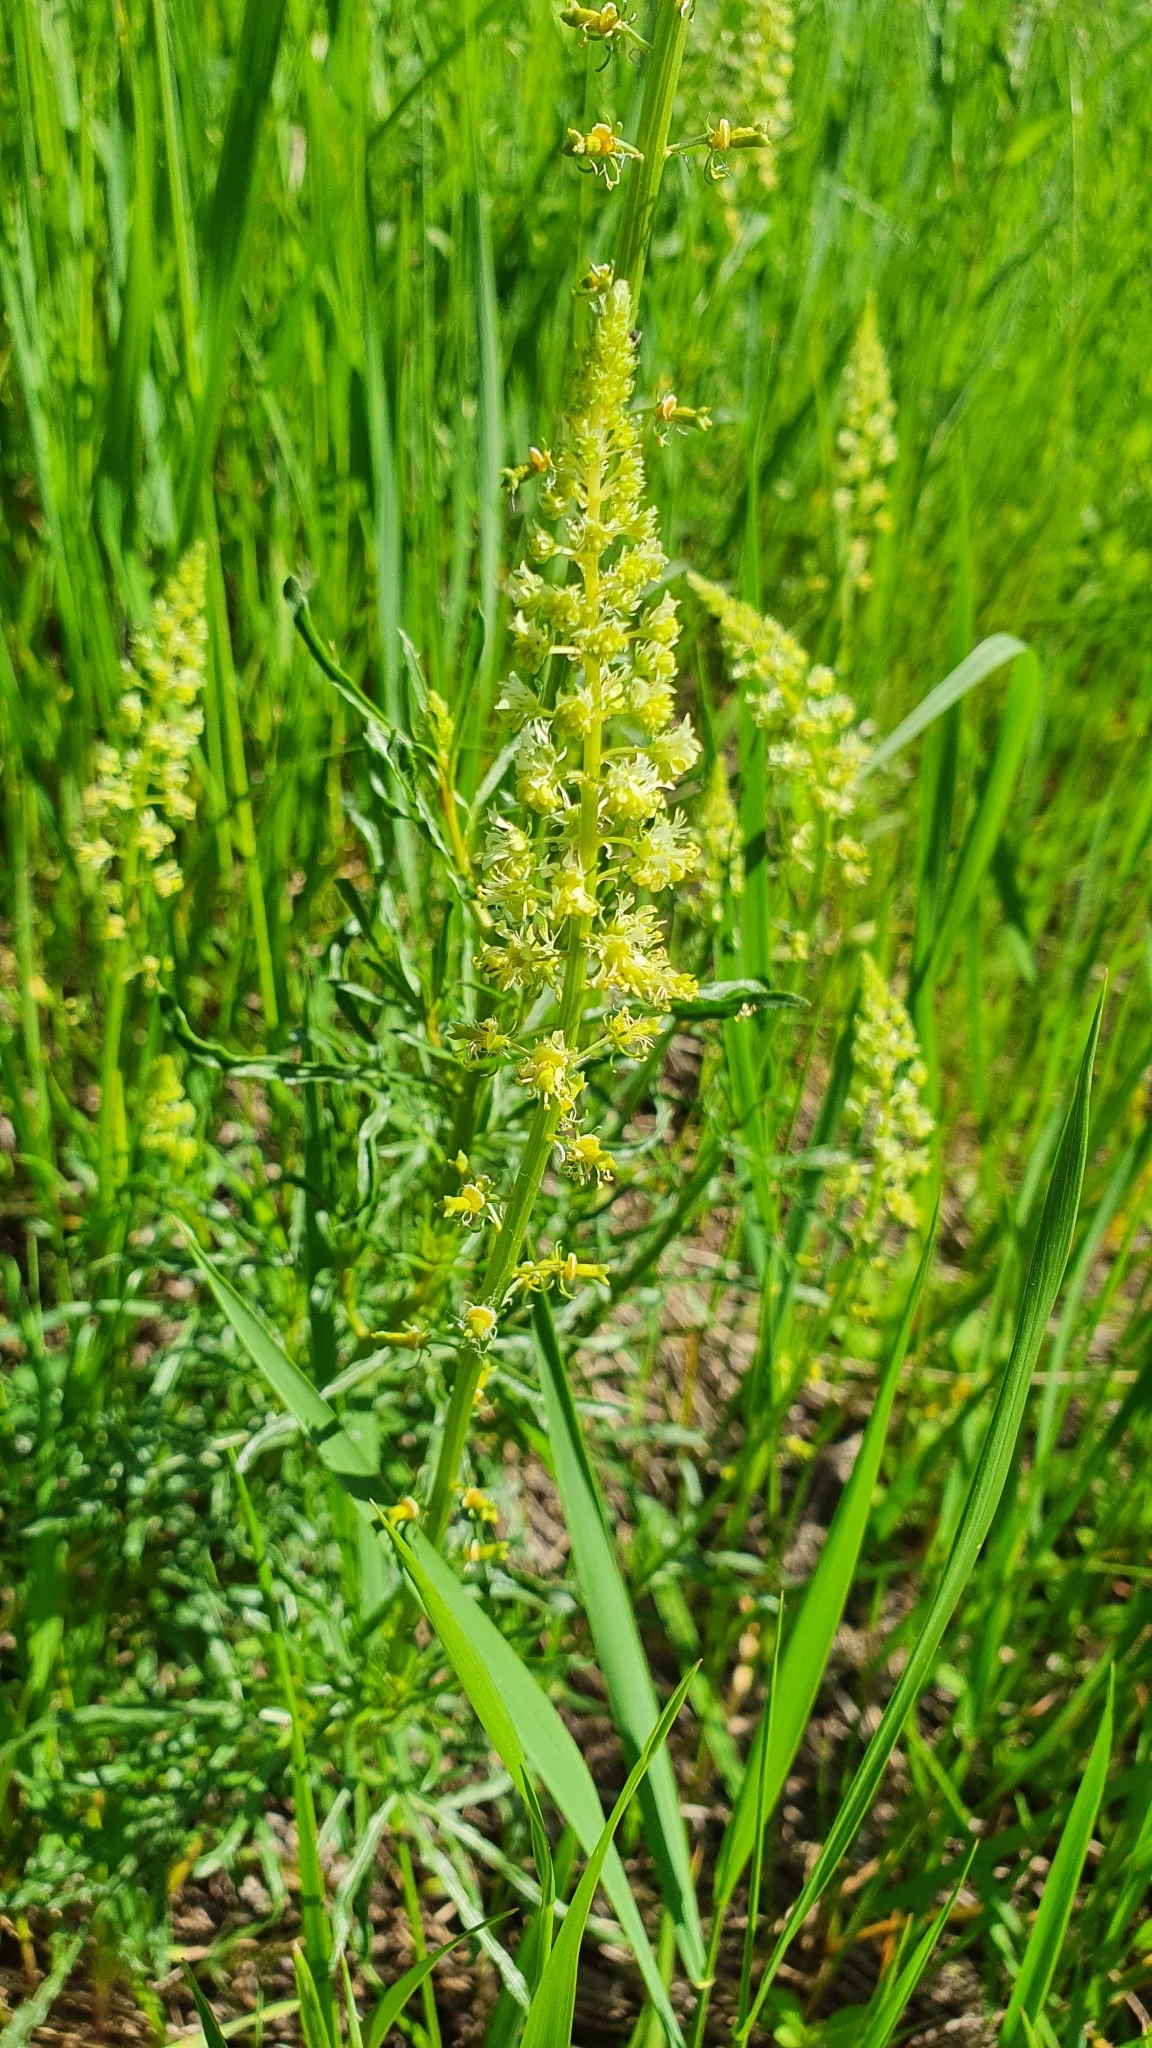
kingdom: Plantae
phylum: Tracheophyta
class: Magnoliopsida
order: Brassicales
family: Resedaceae
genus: Reseda
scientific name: Reseda lutea
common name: Wild mignonette
